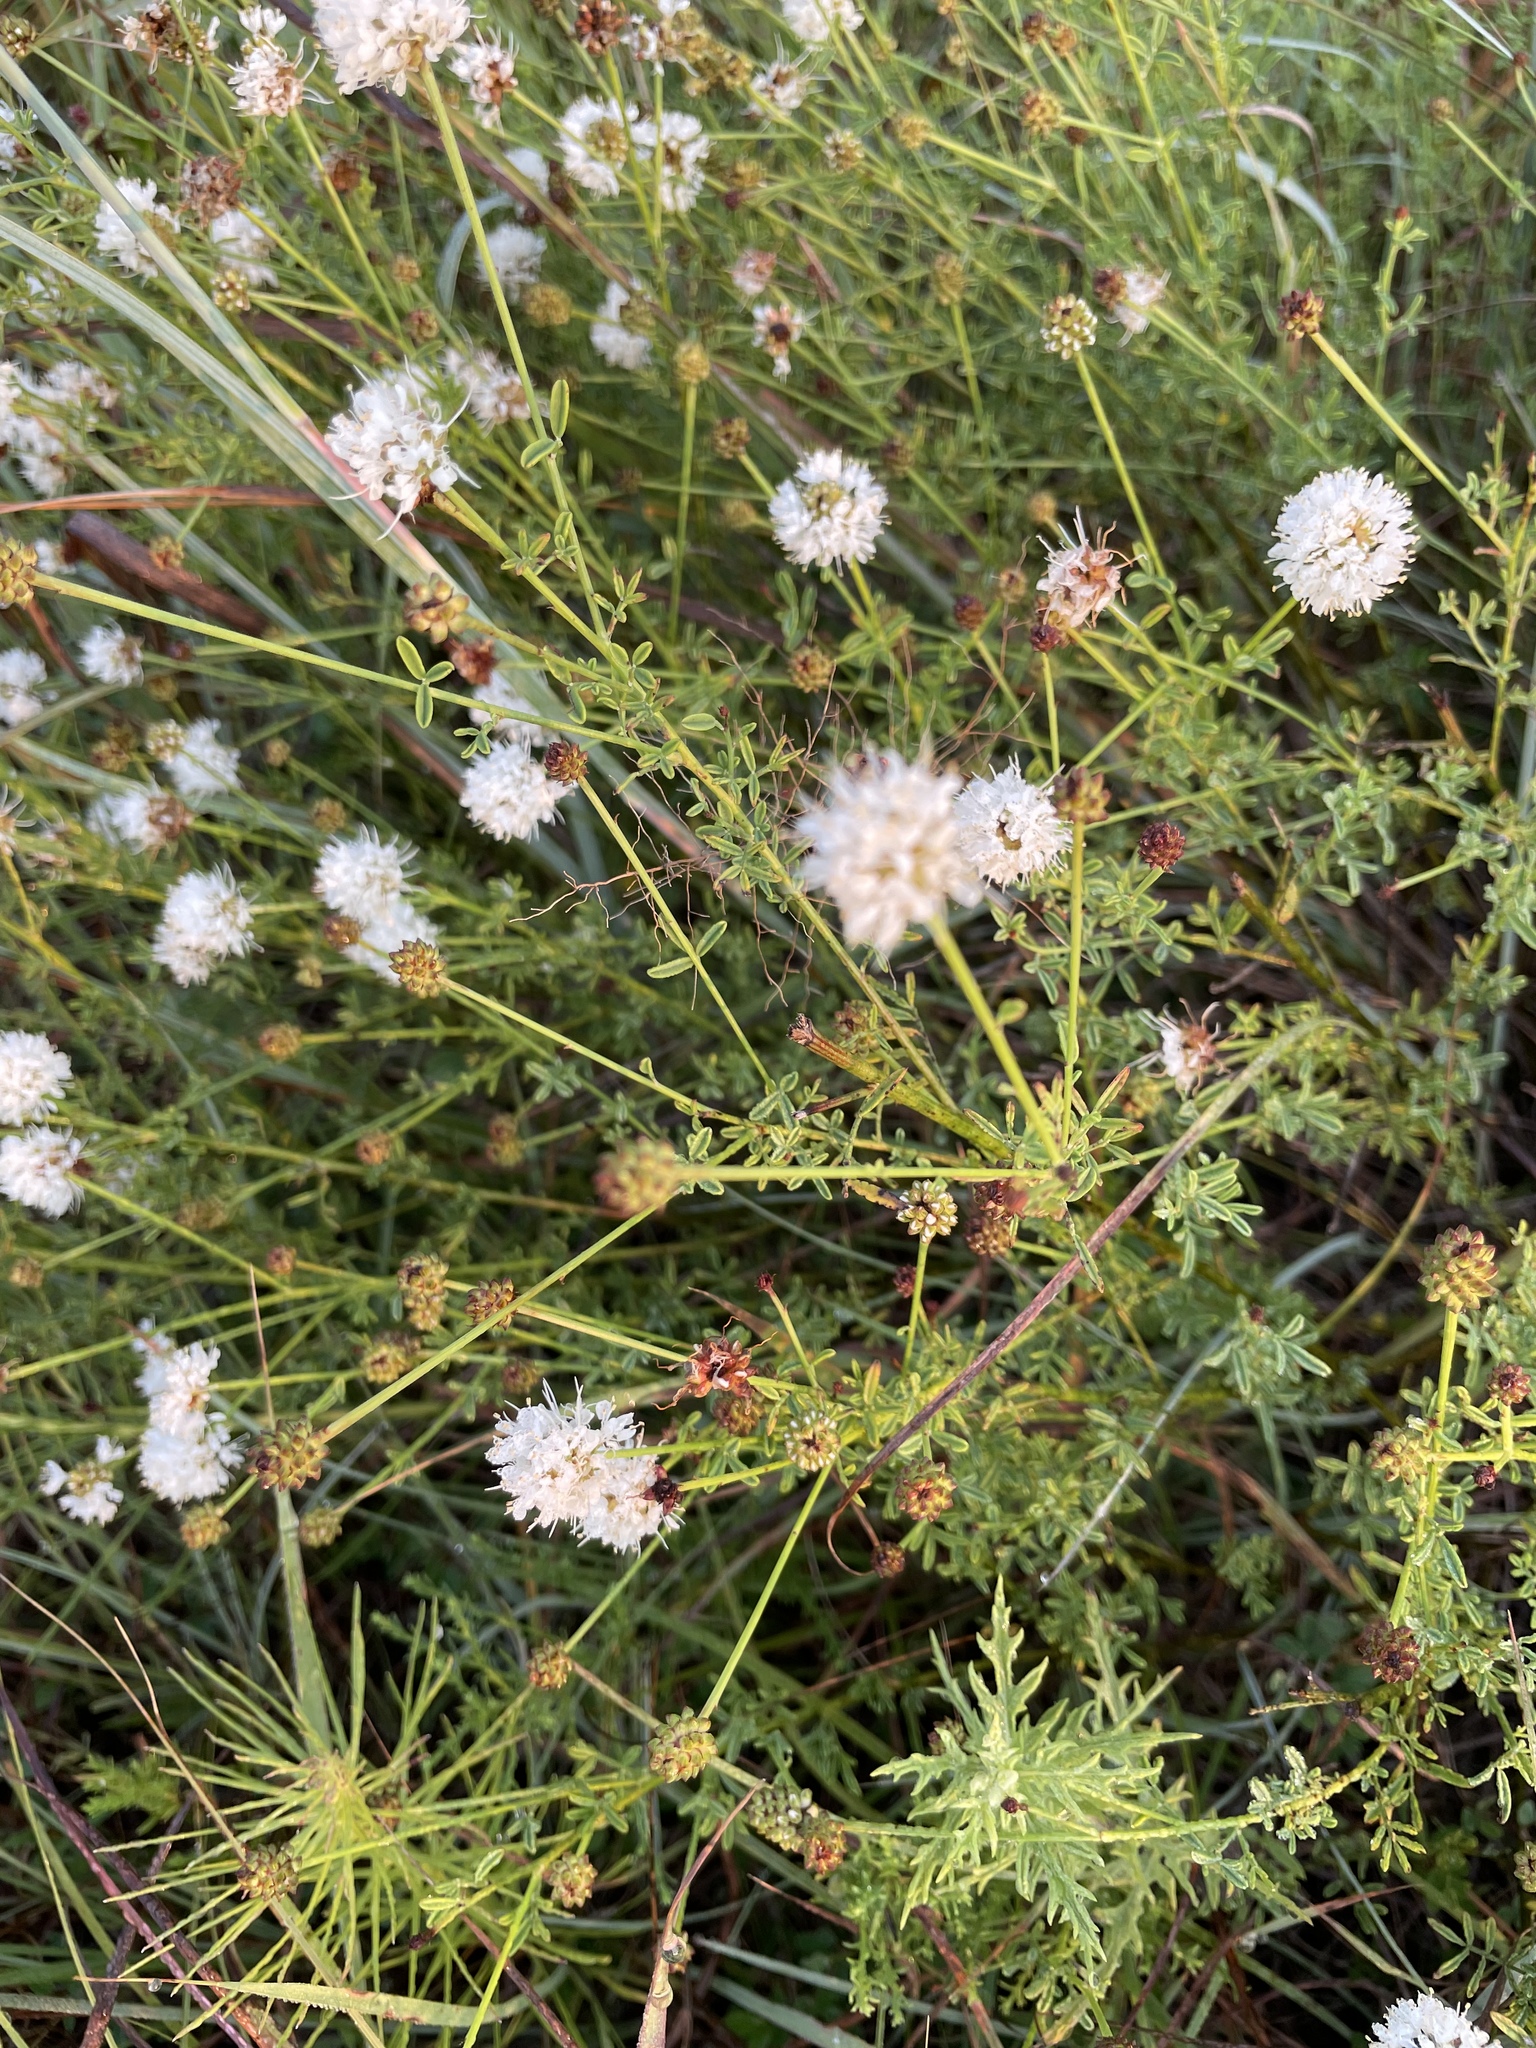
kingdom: Plantae
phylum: Tracheophyta
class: Magnoliopsida
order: Fabales
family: Fabaceae
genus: Dalea
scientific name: Dalea multiflora
